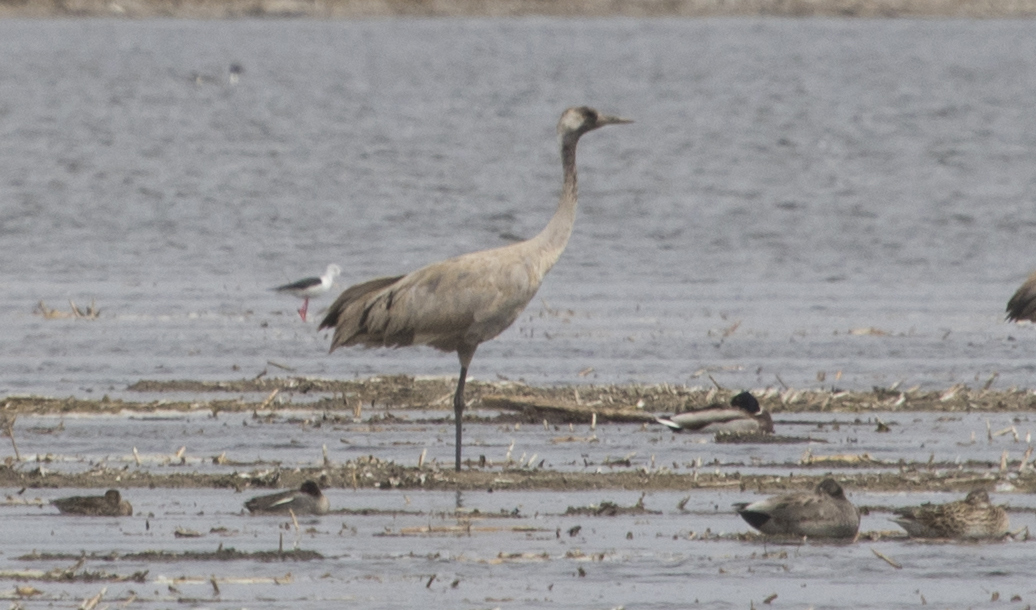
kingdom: Animalia
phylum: Chordata
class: Aves
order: Charadriiformes
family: Recurvirostridae
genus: Himantopus
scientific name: Himantopus himantopus
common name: Black-winged stilt
